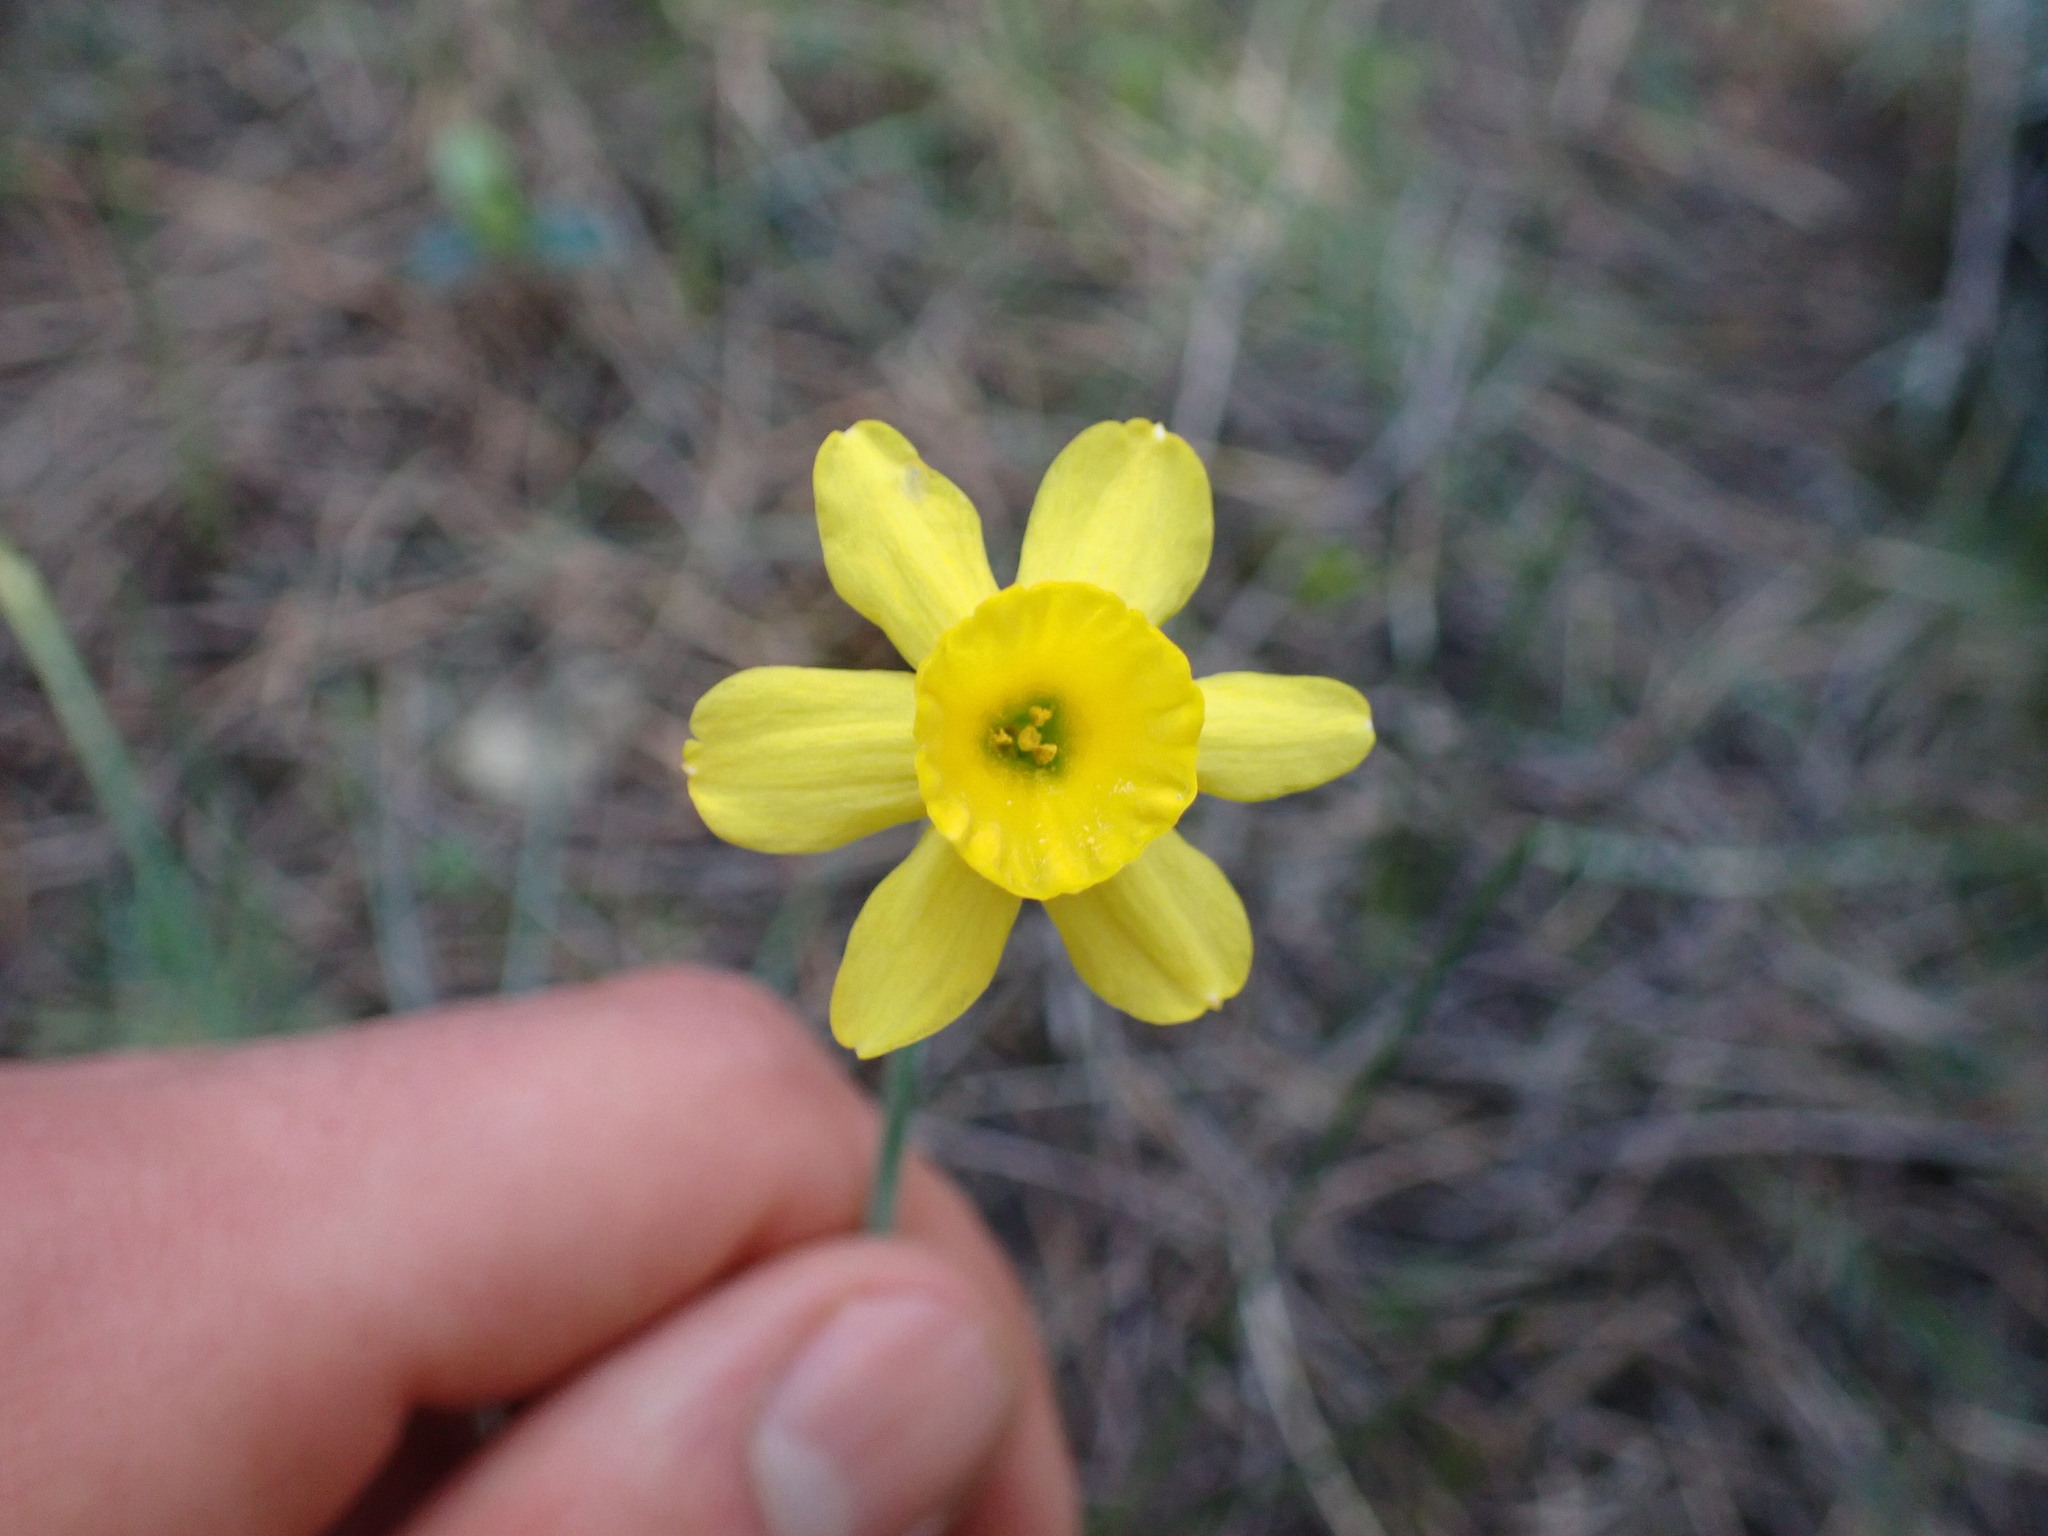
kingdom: Plantae
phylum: Tracheophyta
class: Liliopsida
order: Asparagales
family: Amaryllidaceae
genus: Narcissus
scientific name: Narcissus assoanus
